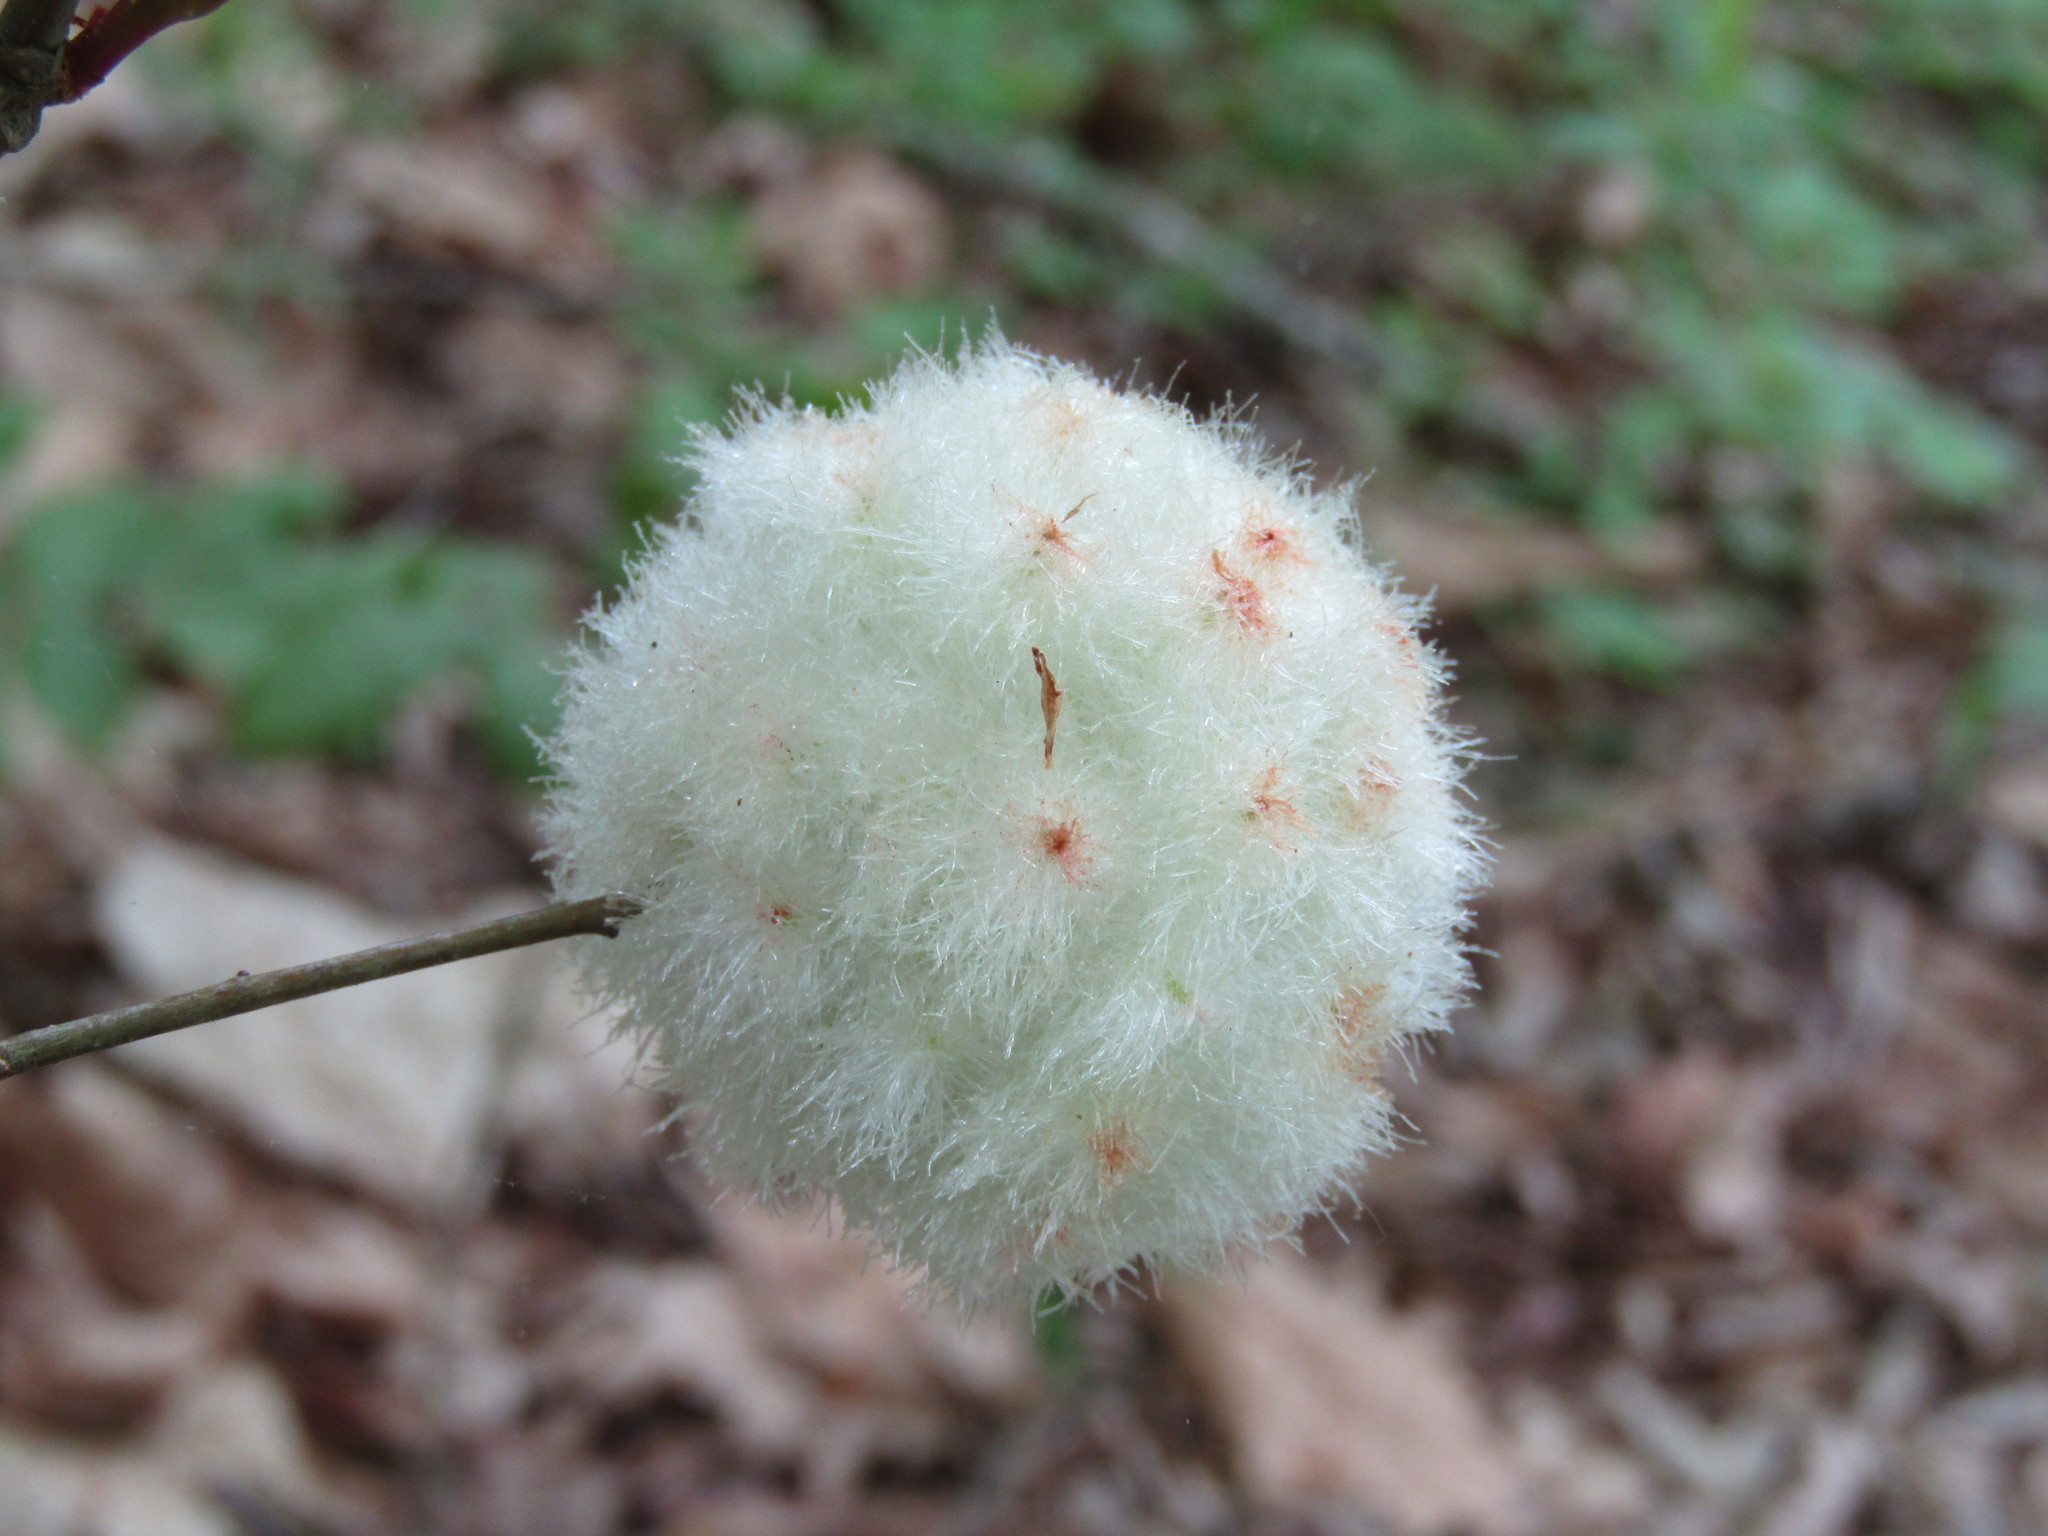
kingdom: Animalia
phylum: Arthropoda
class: Insecta
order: Hymenoptera
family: Cynipidae
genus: Callirhytis
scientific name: Callirhytis
